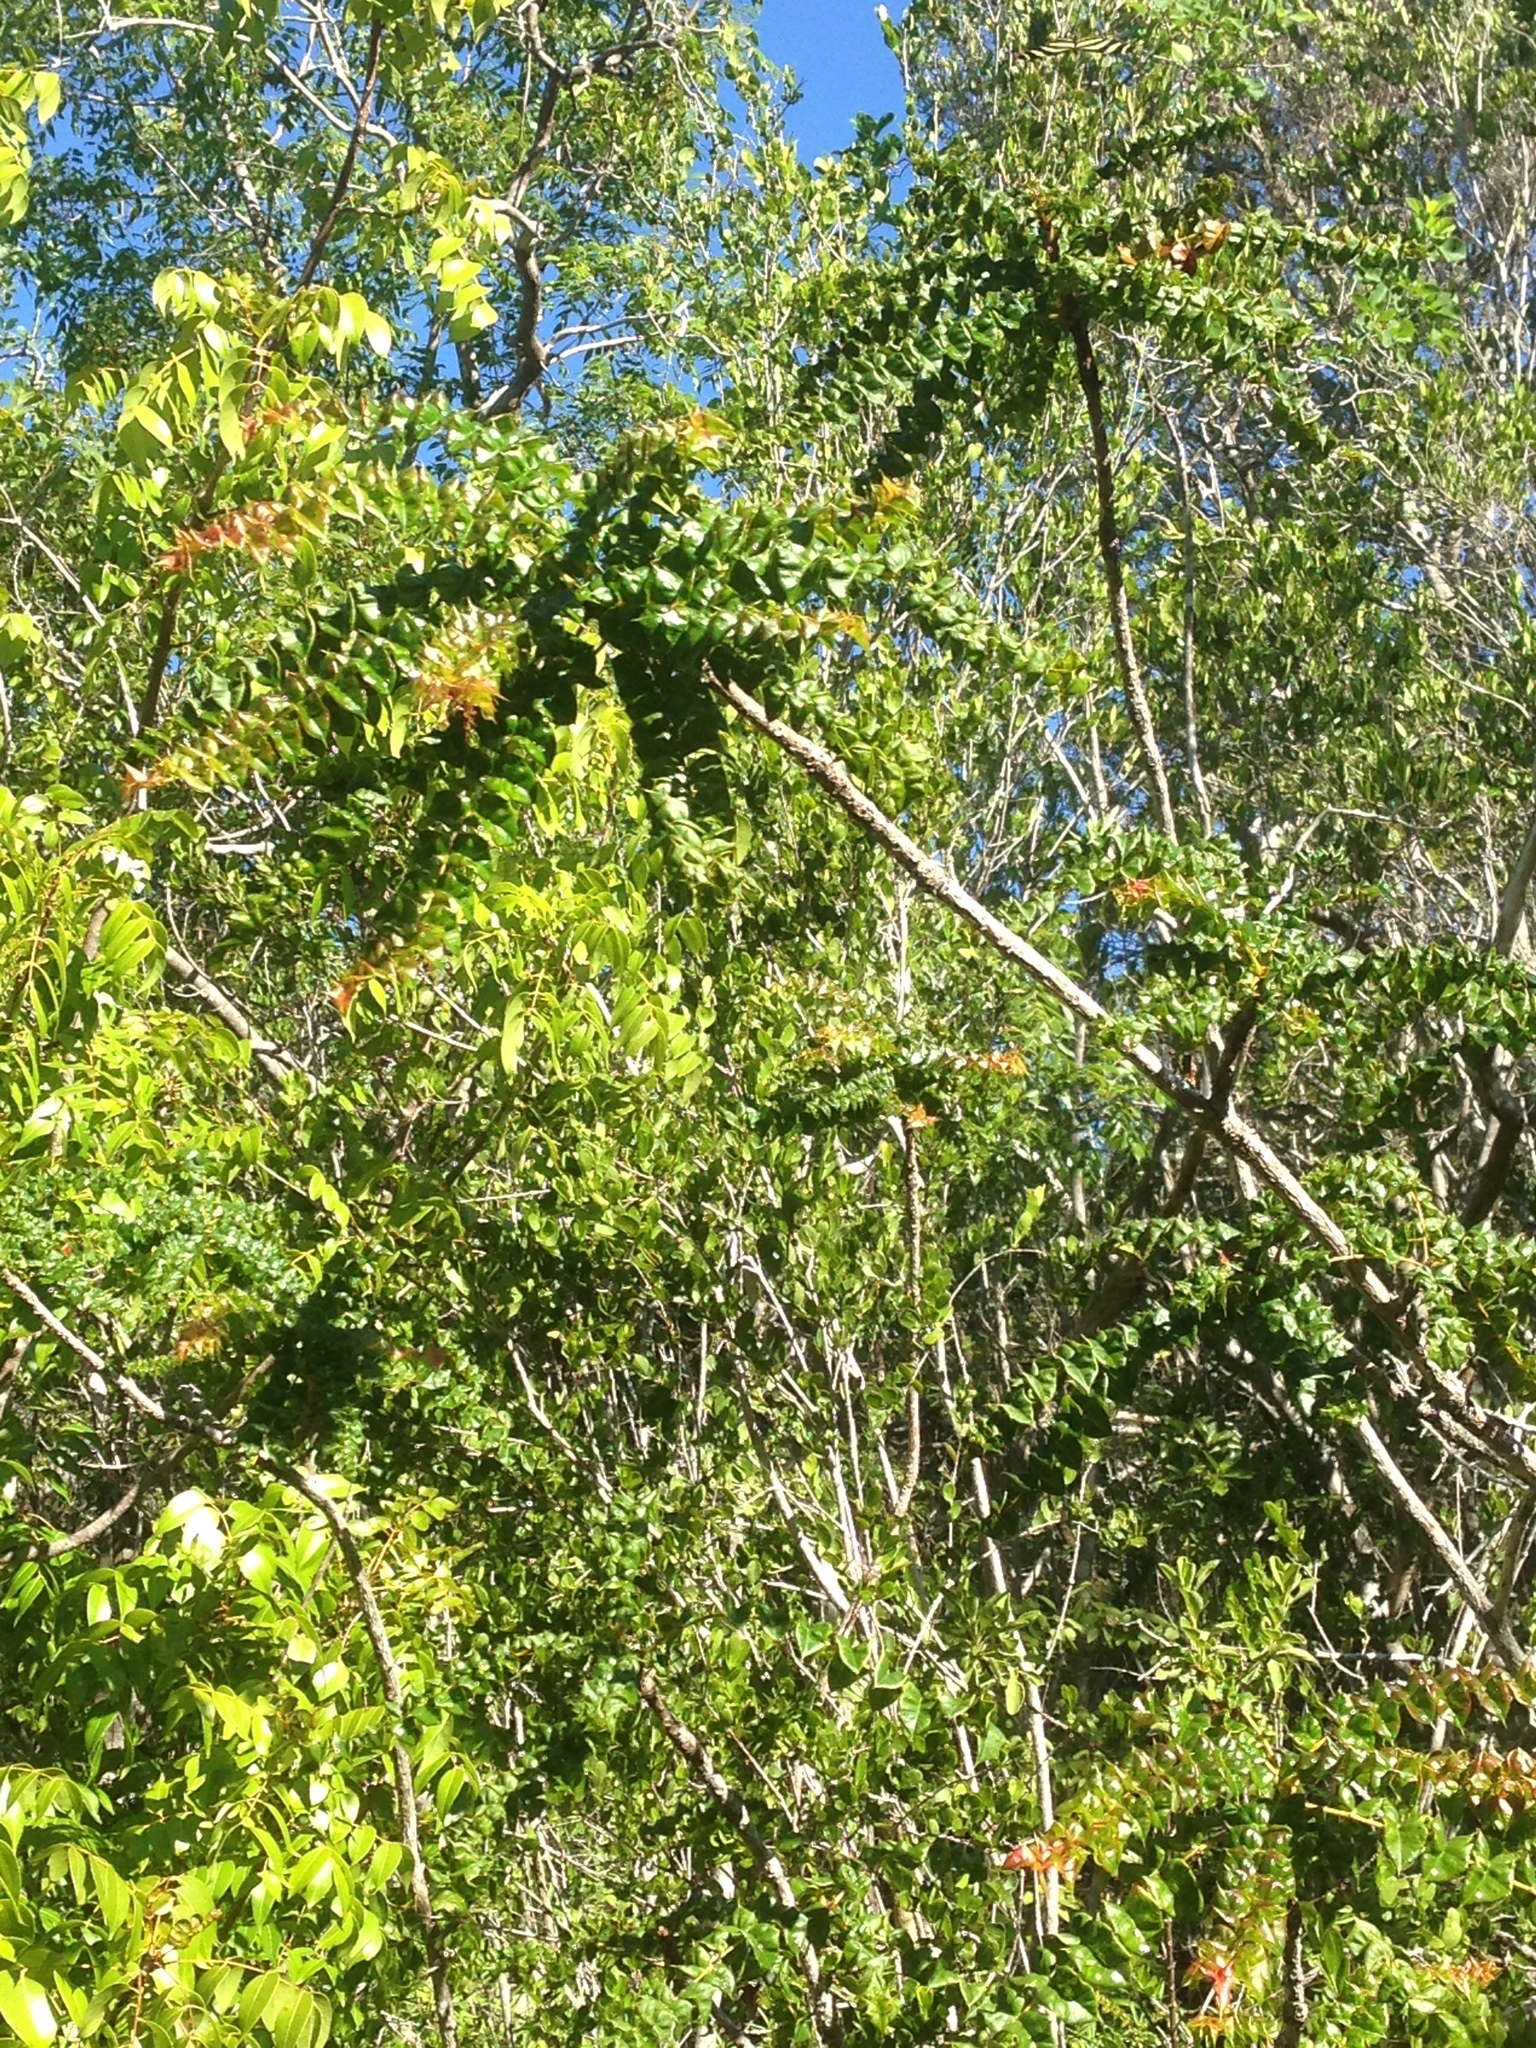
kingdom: Plantae
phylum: Tracheophyta
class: Magnoliopsida
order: Sapindales
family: Anacardiaceae
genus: Comocladia
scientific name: Comocladia dodonaea
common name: Poison ash
